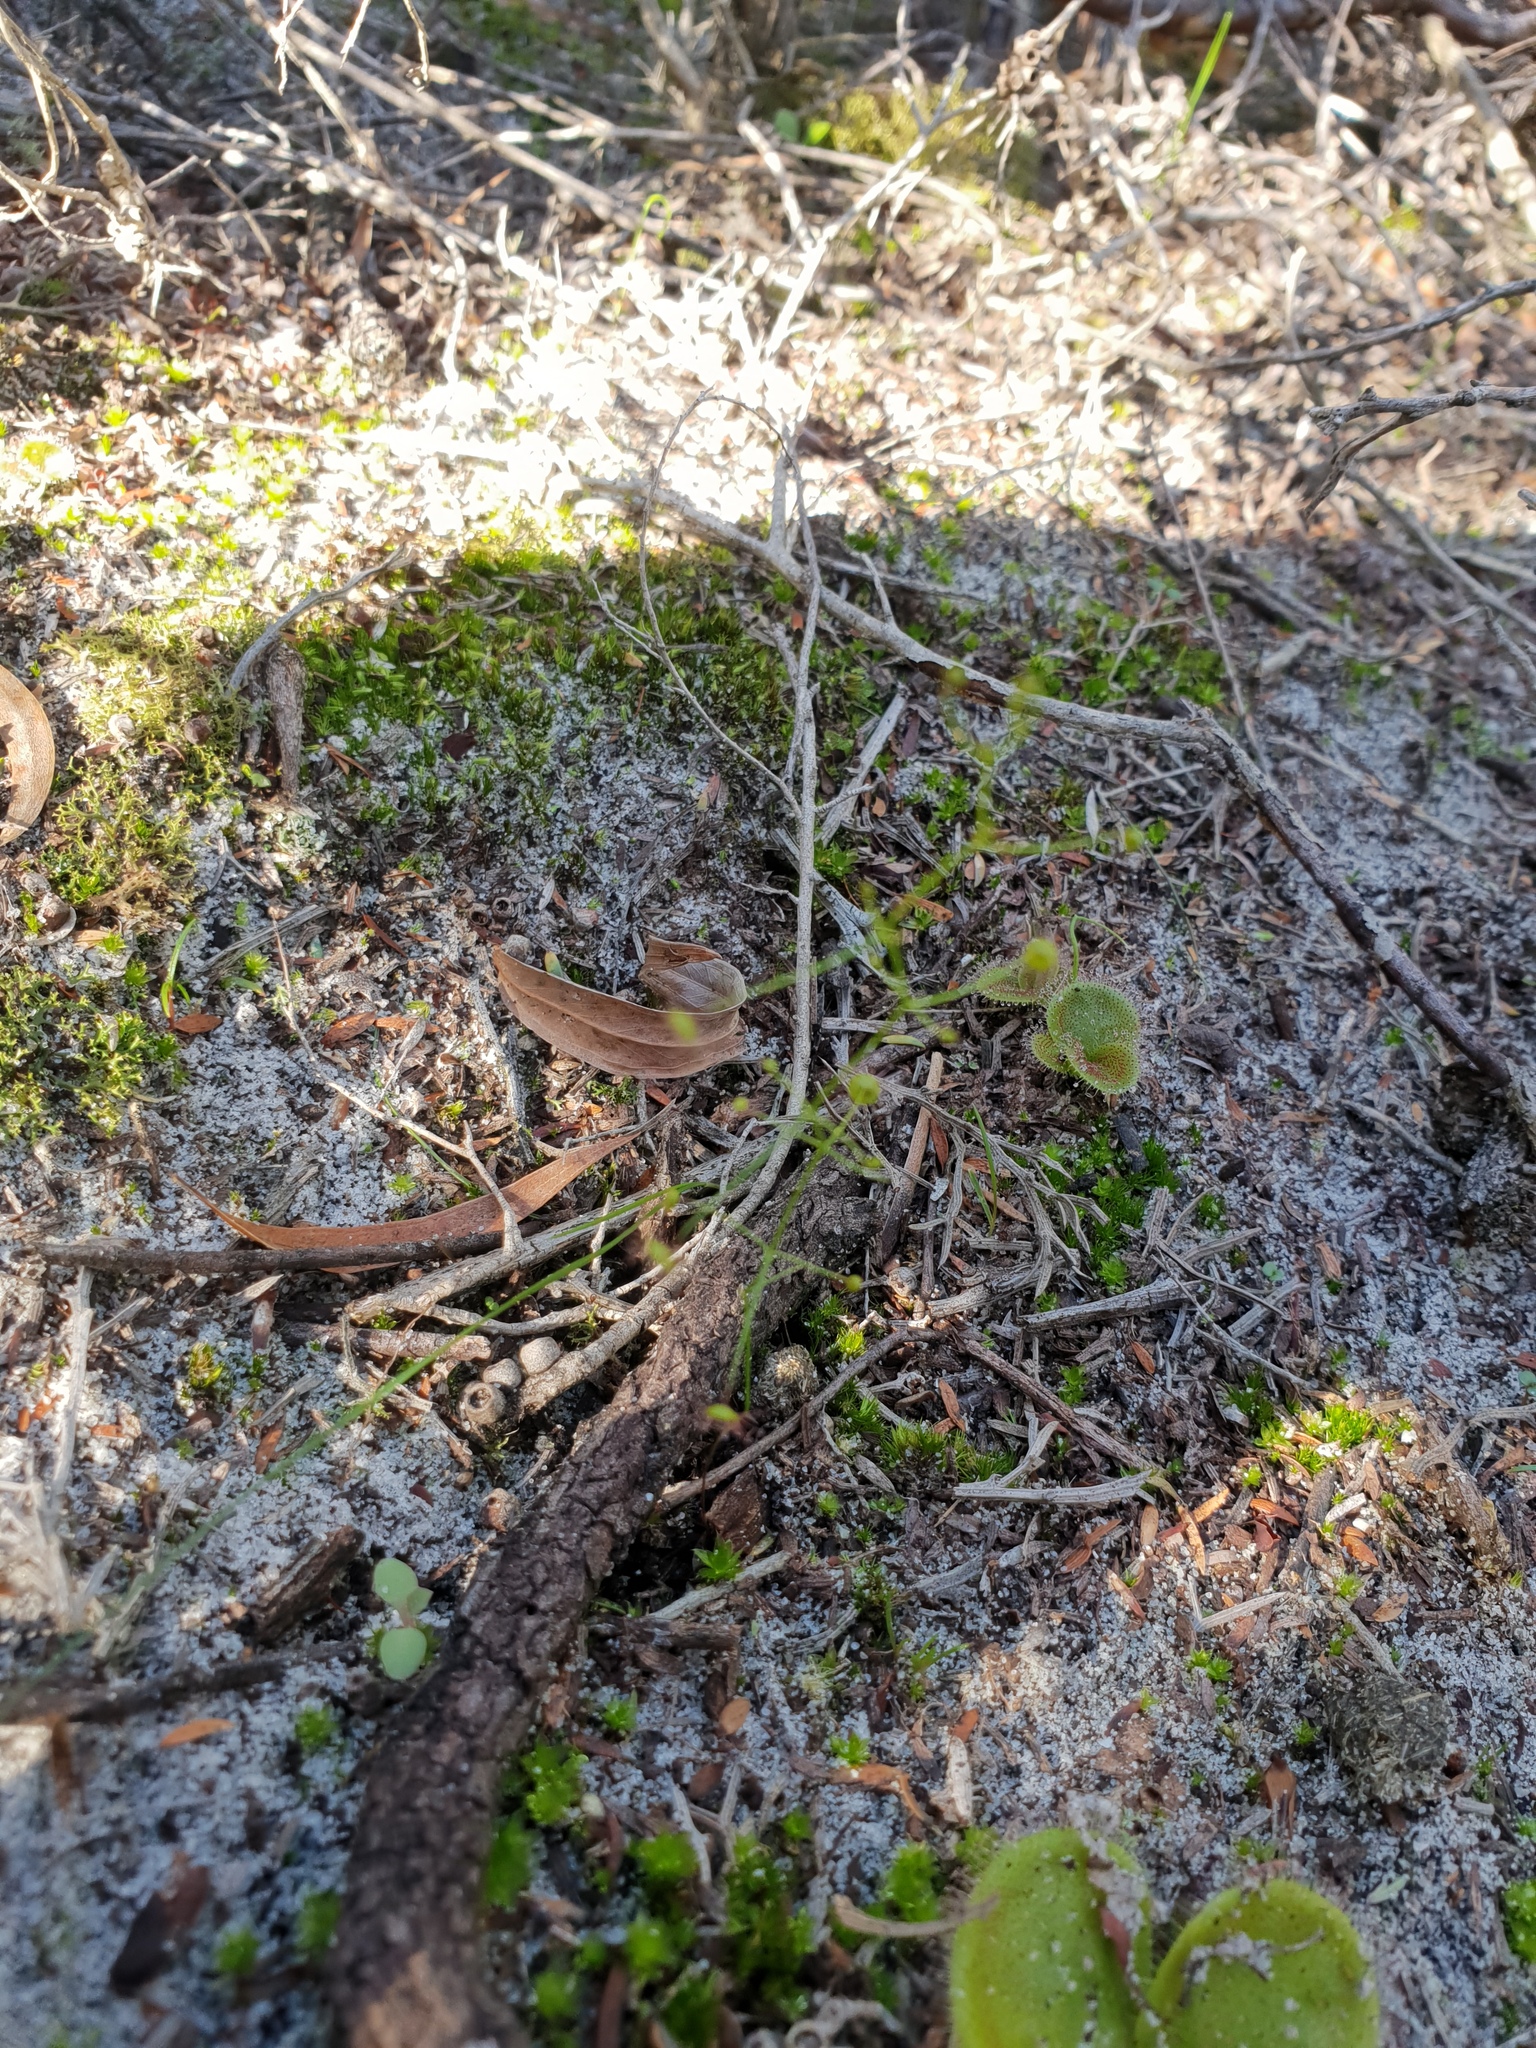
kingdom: Plantae
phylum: Tracheophyta
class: Magnoliopsida
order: Caryophyllales
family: Droseraceae
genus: Drosera
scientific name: Drosera pallida
